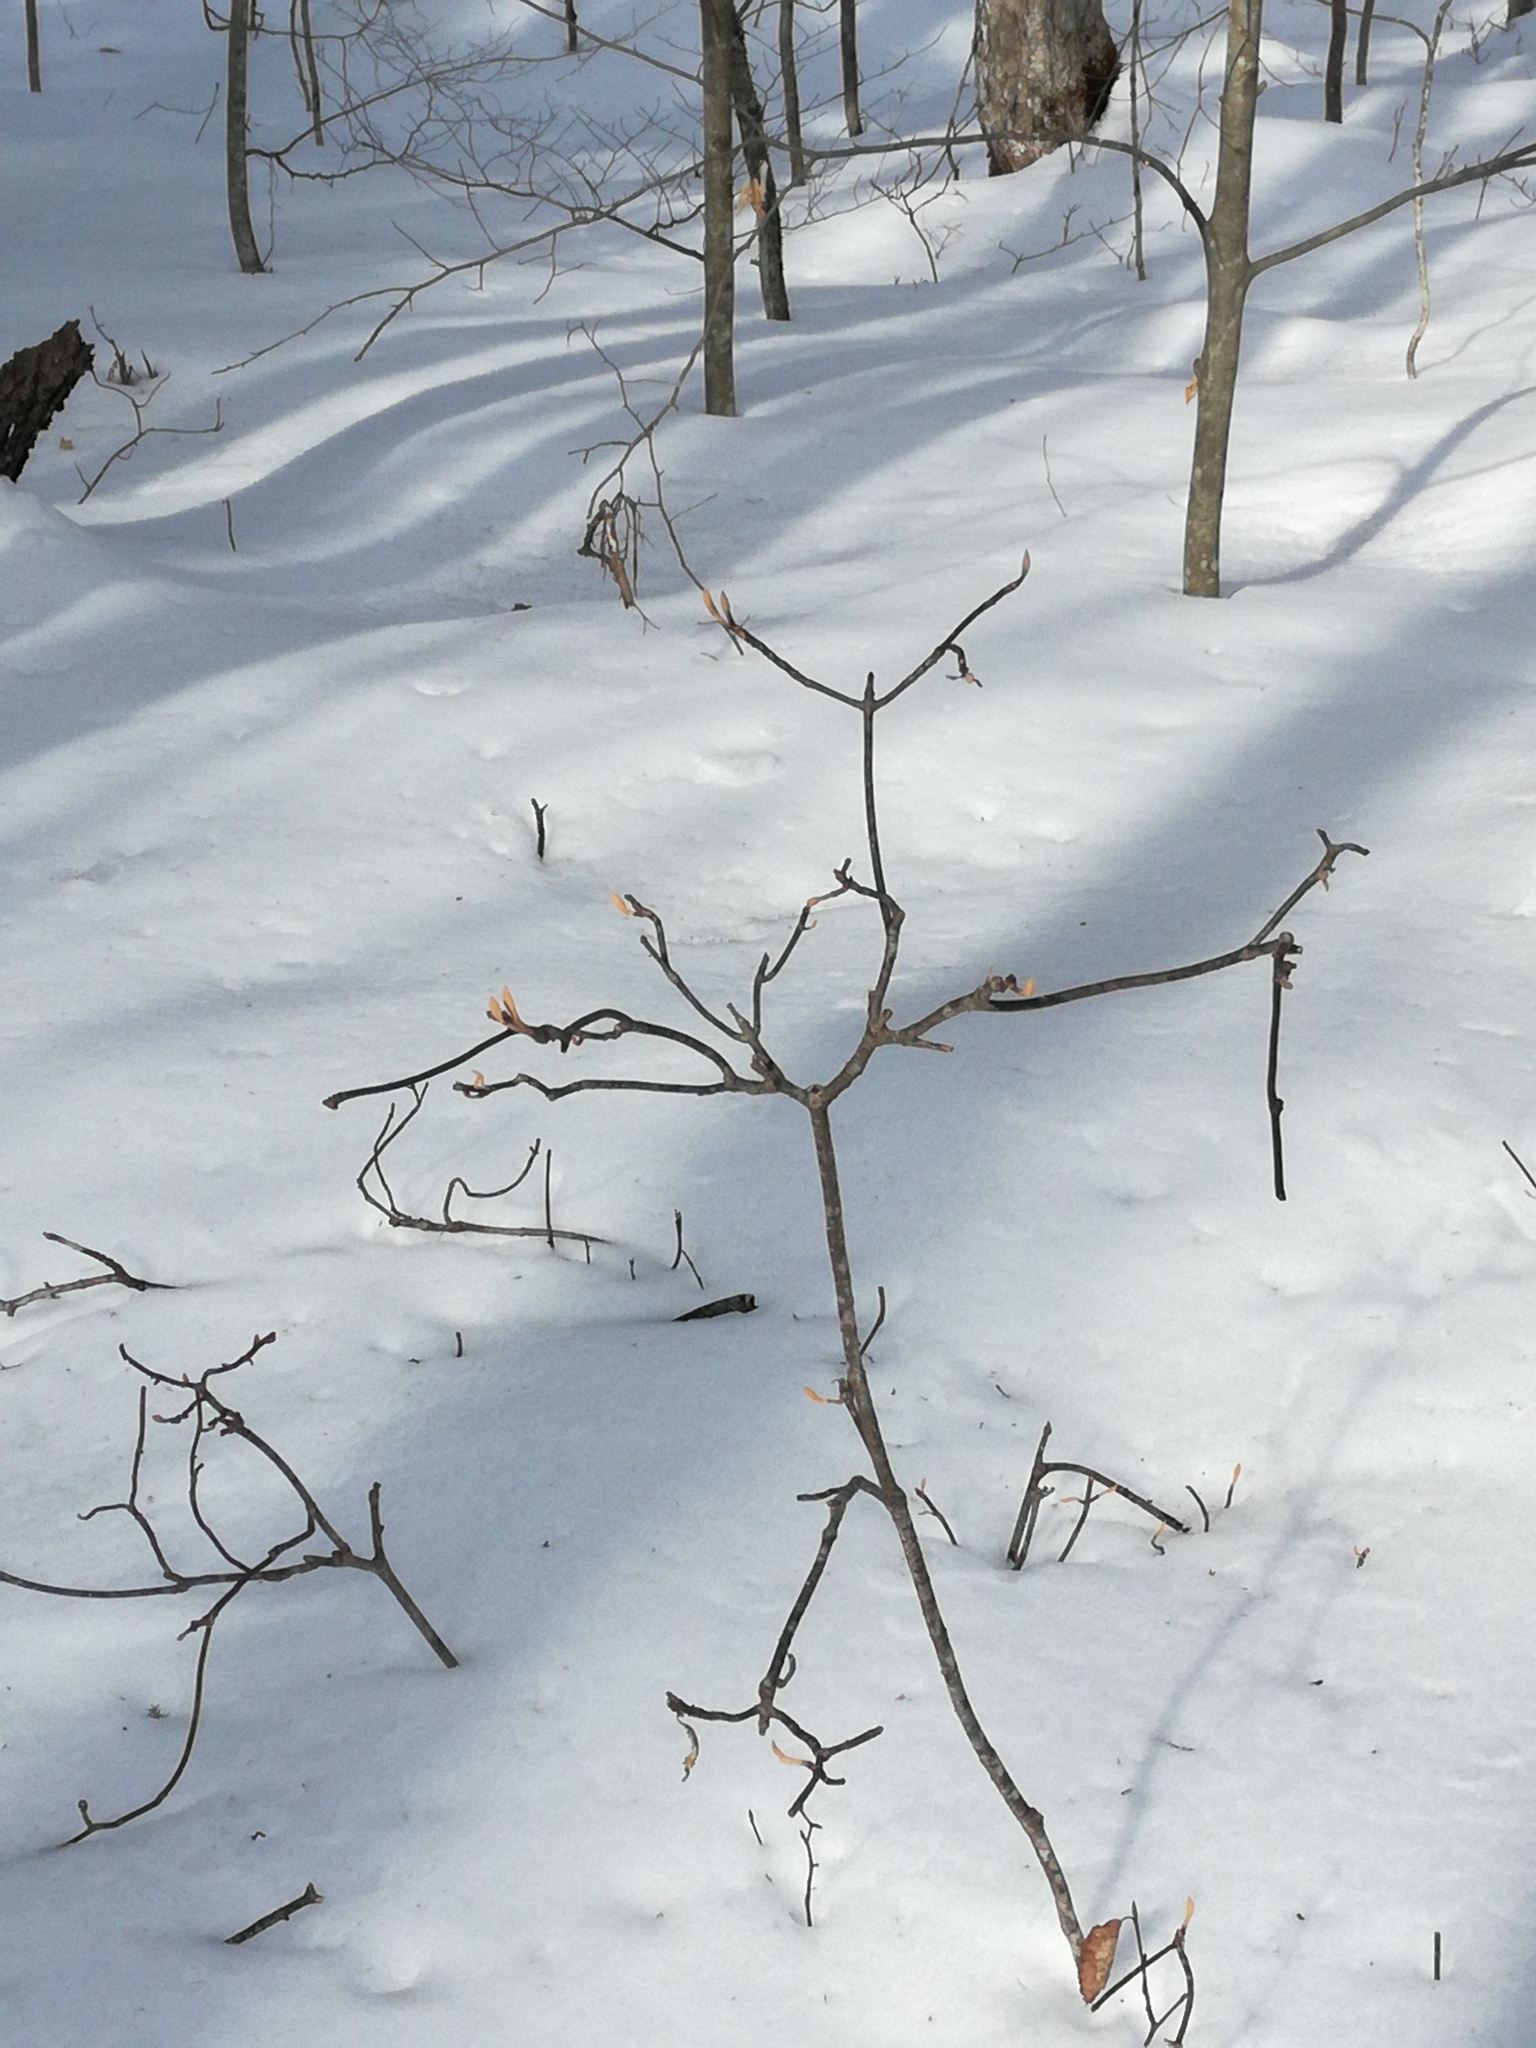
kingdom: Plantae
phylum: Tracheophyta
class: Magnoliopsida
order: Dipsacales
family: Viburnaceae
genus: Viburnum
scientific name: Viburnum lantanoides
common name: Hobblebush
